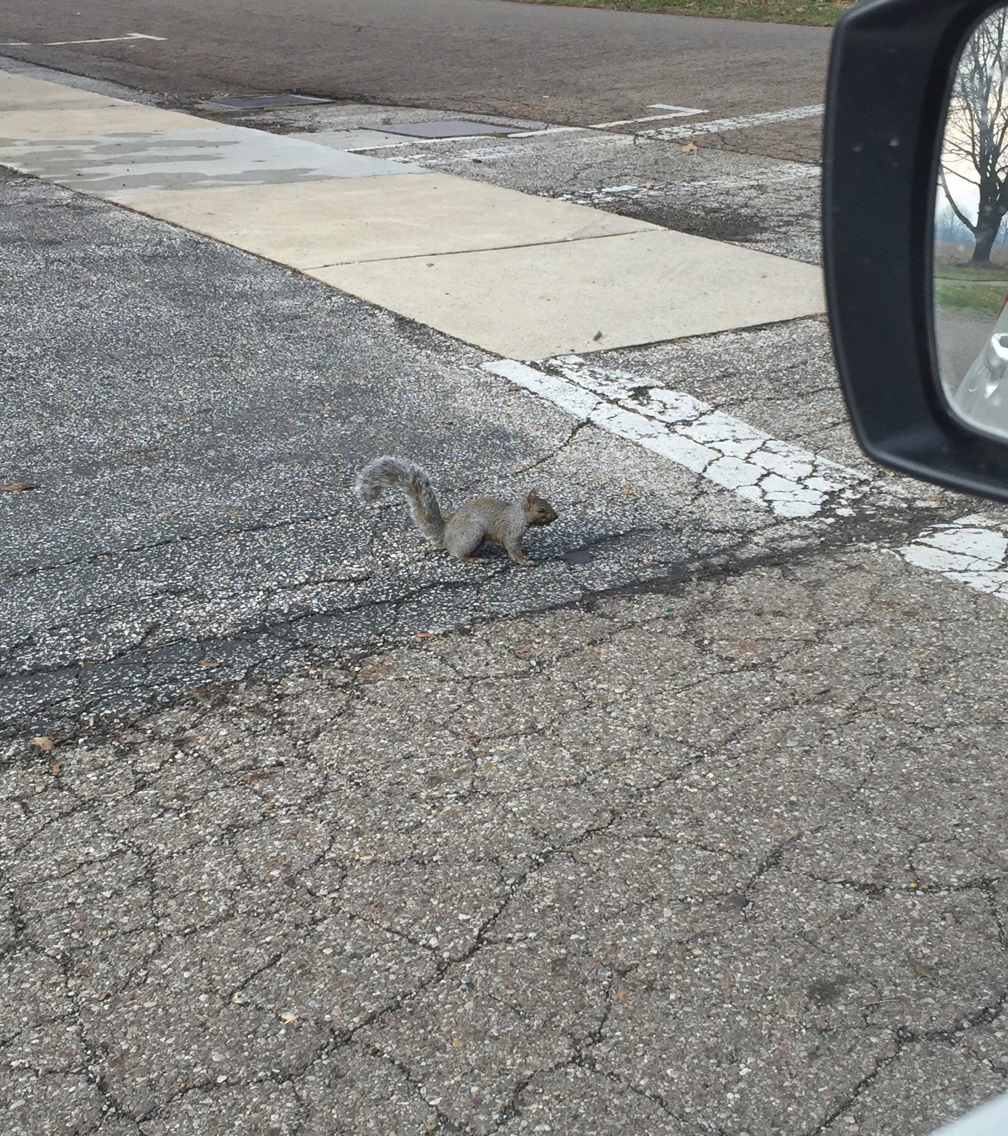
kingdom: Animalia
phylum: Chordata
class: Mammalia
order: Rodentia
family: Sciuridae
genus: Sciurus
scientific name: Sciurus carolinensis
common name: Eastern gray squirrel
